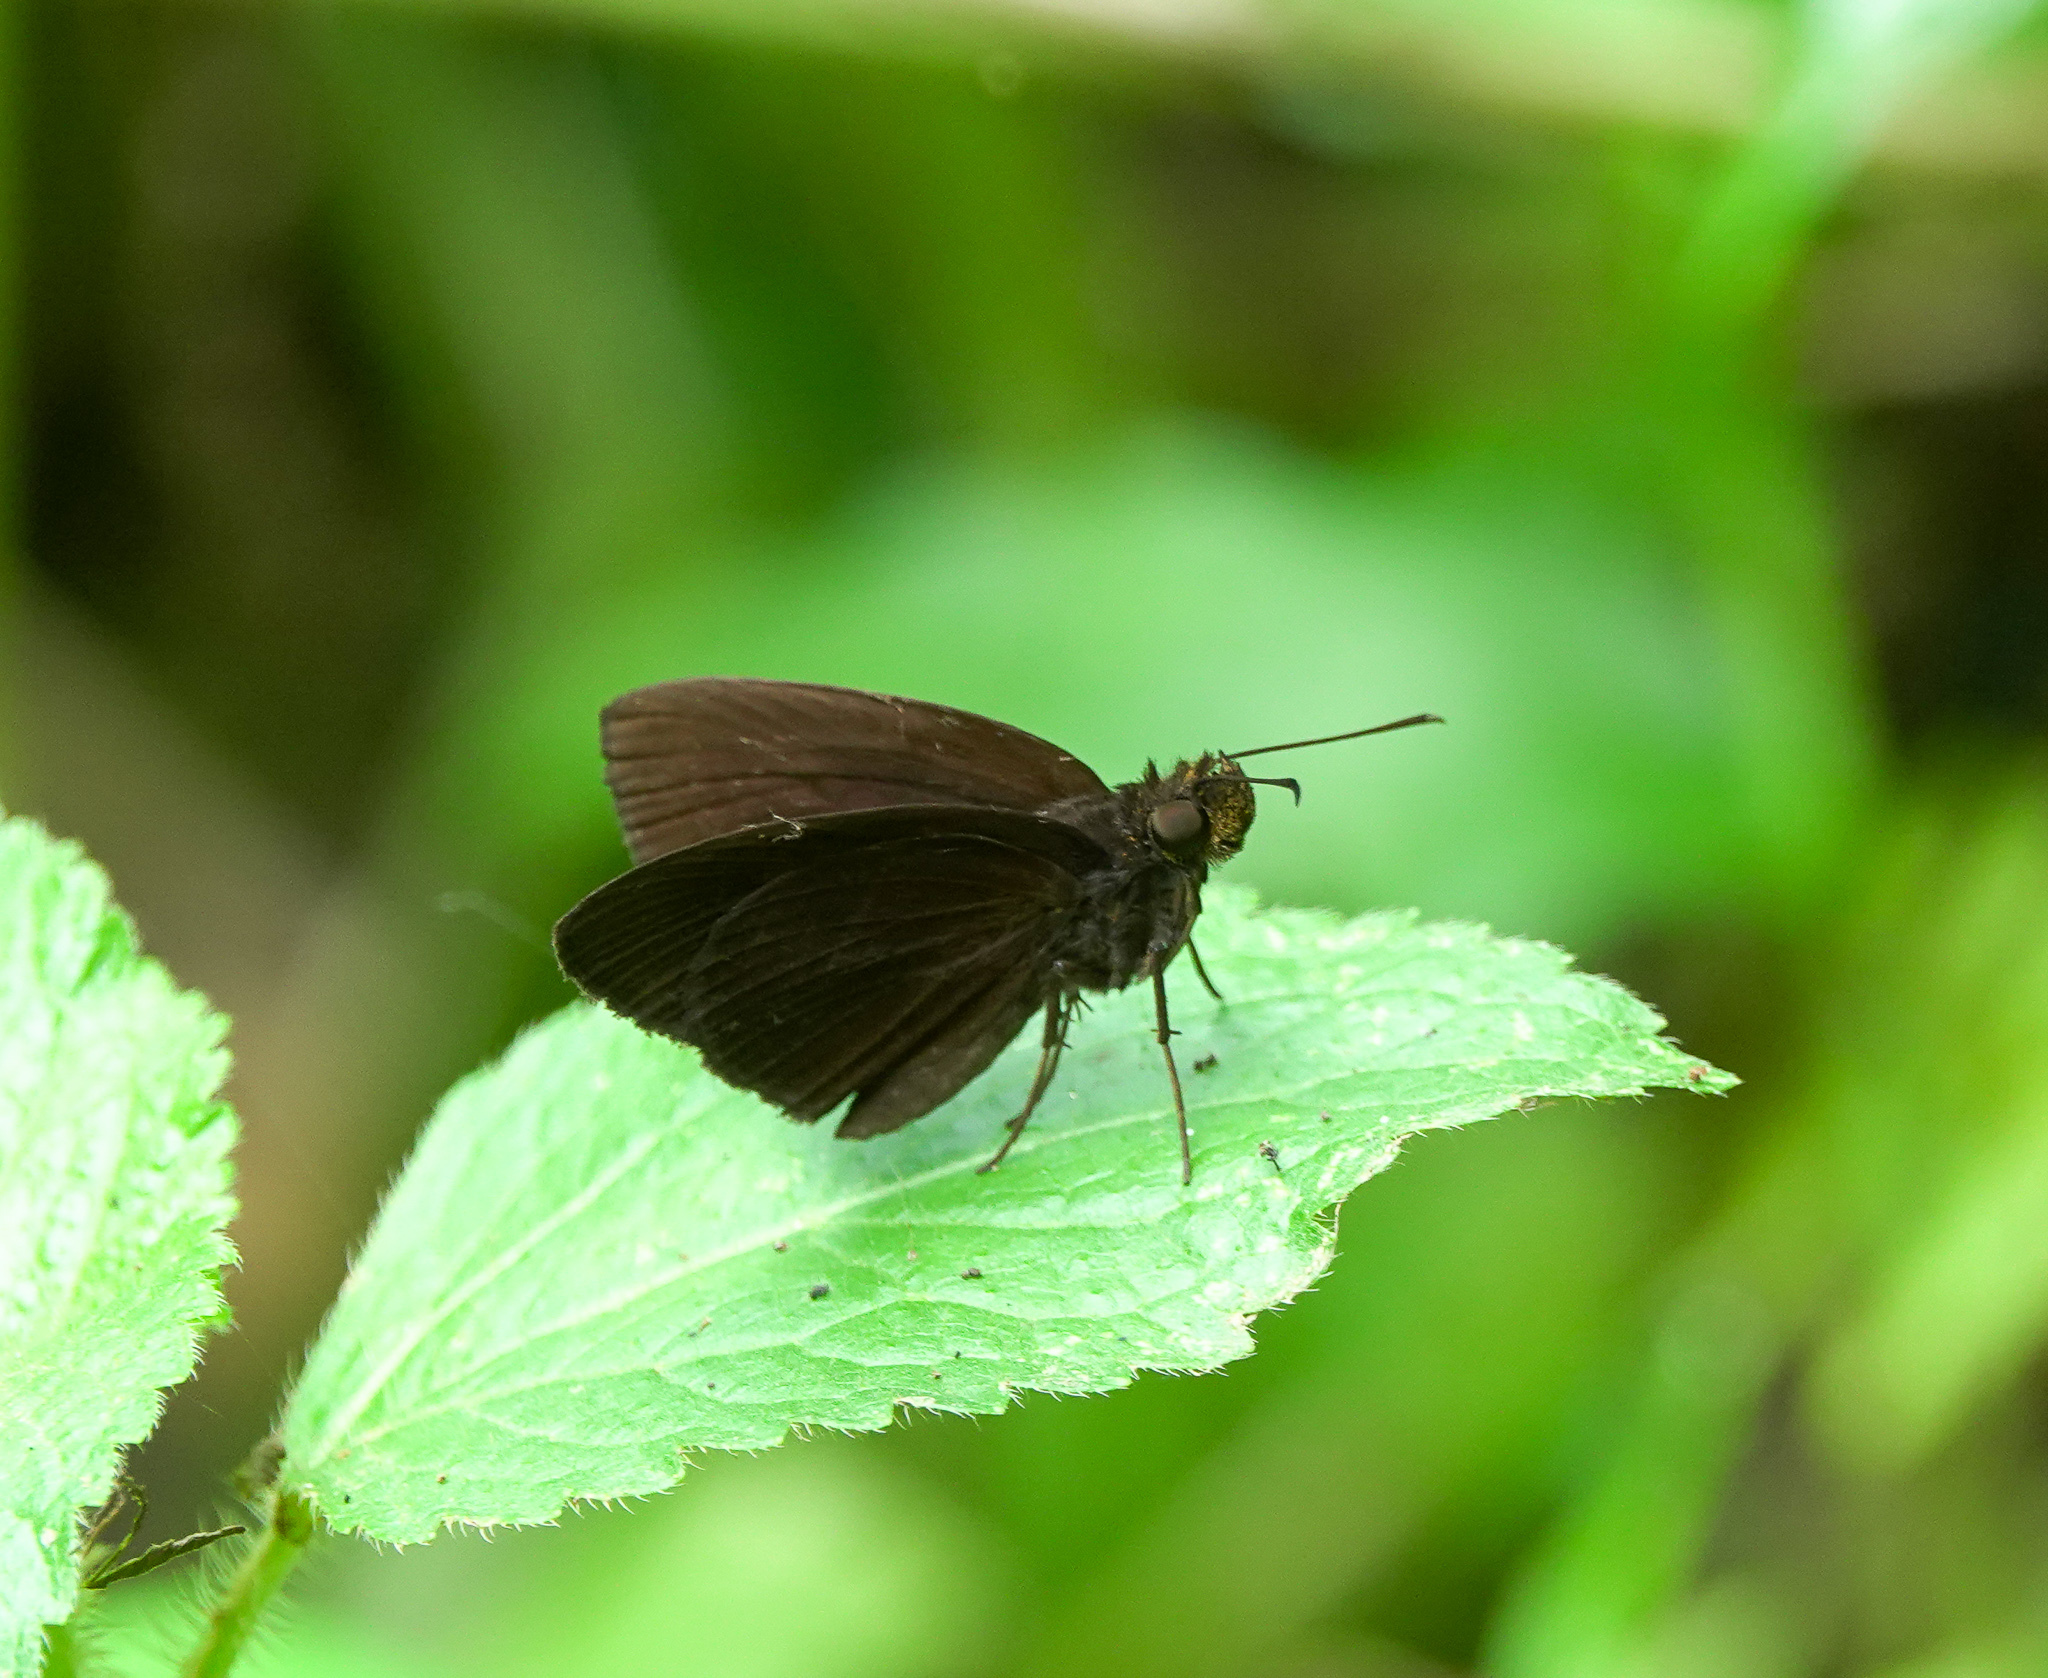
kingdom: Animalia
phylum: Arthropoda
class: Insecta
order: Lepidoptera
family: Hesperiidae
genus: Astictopterus
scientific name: Astictopterus jama
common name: Forest hopper
